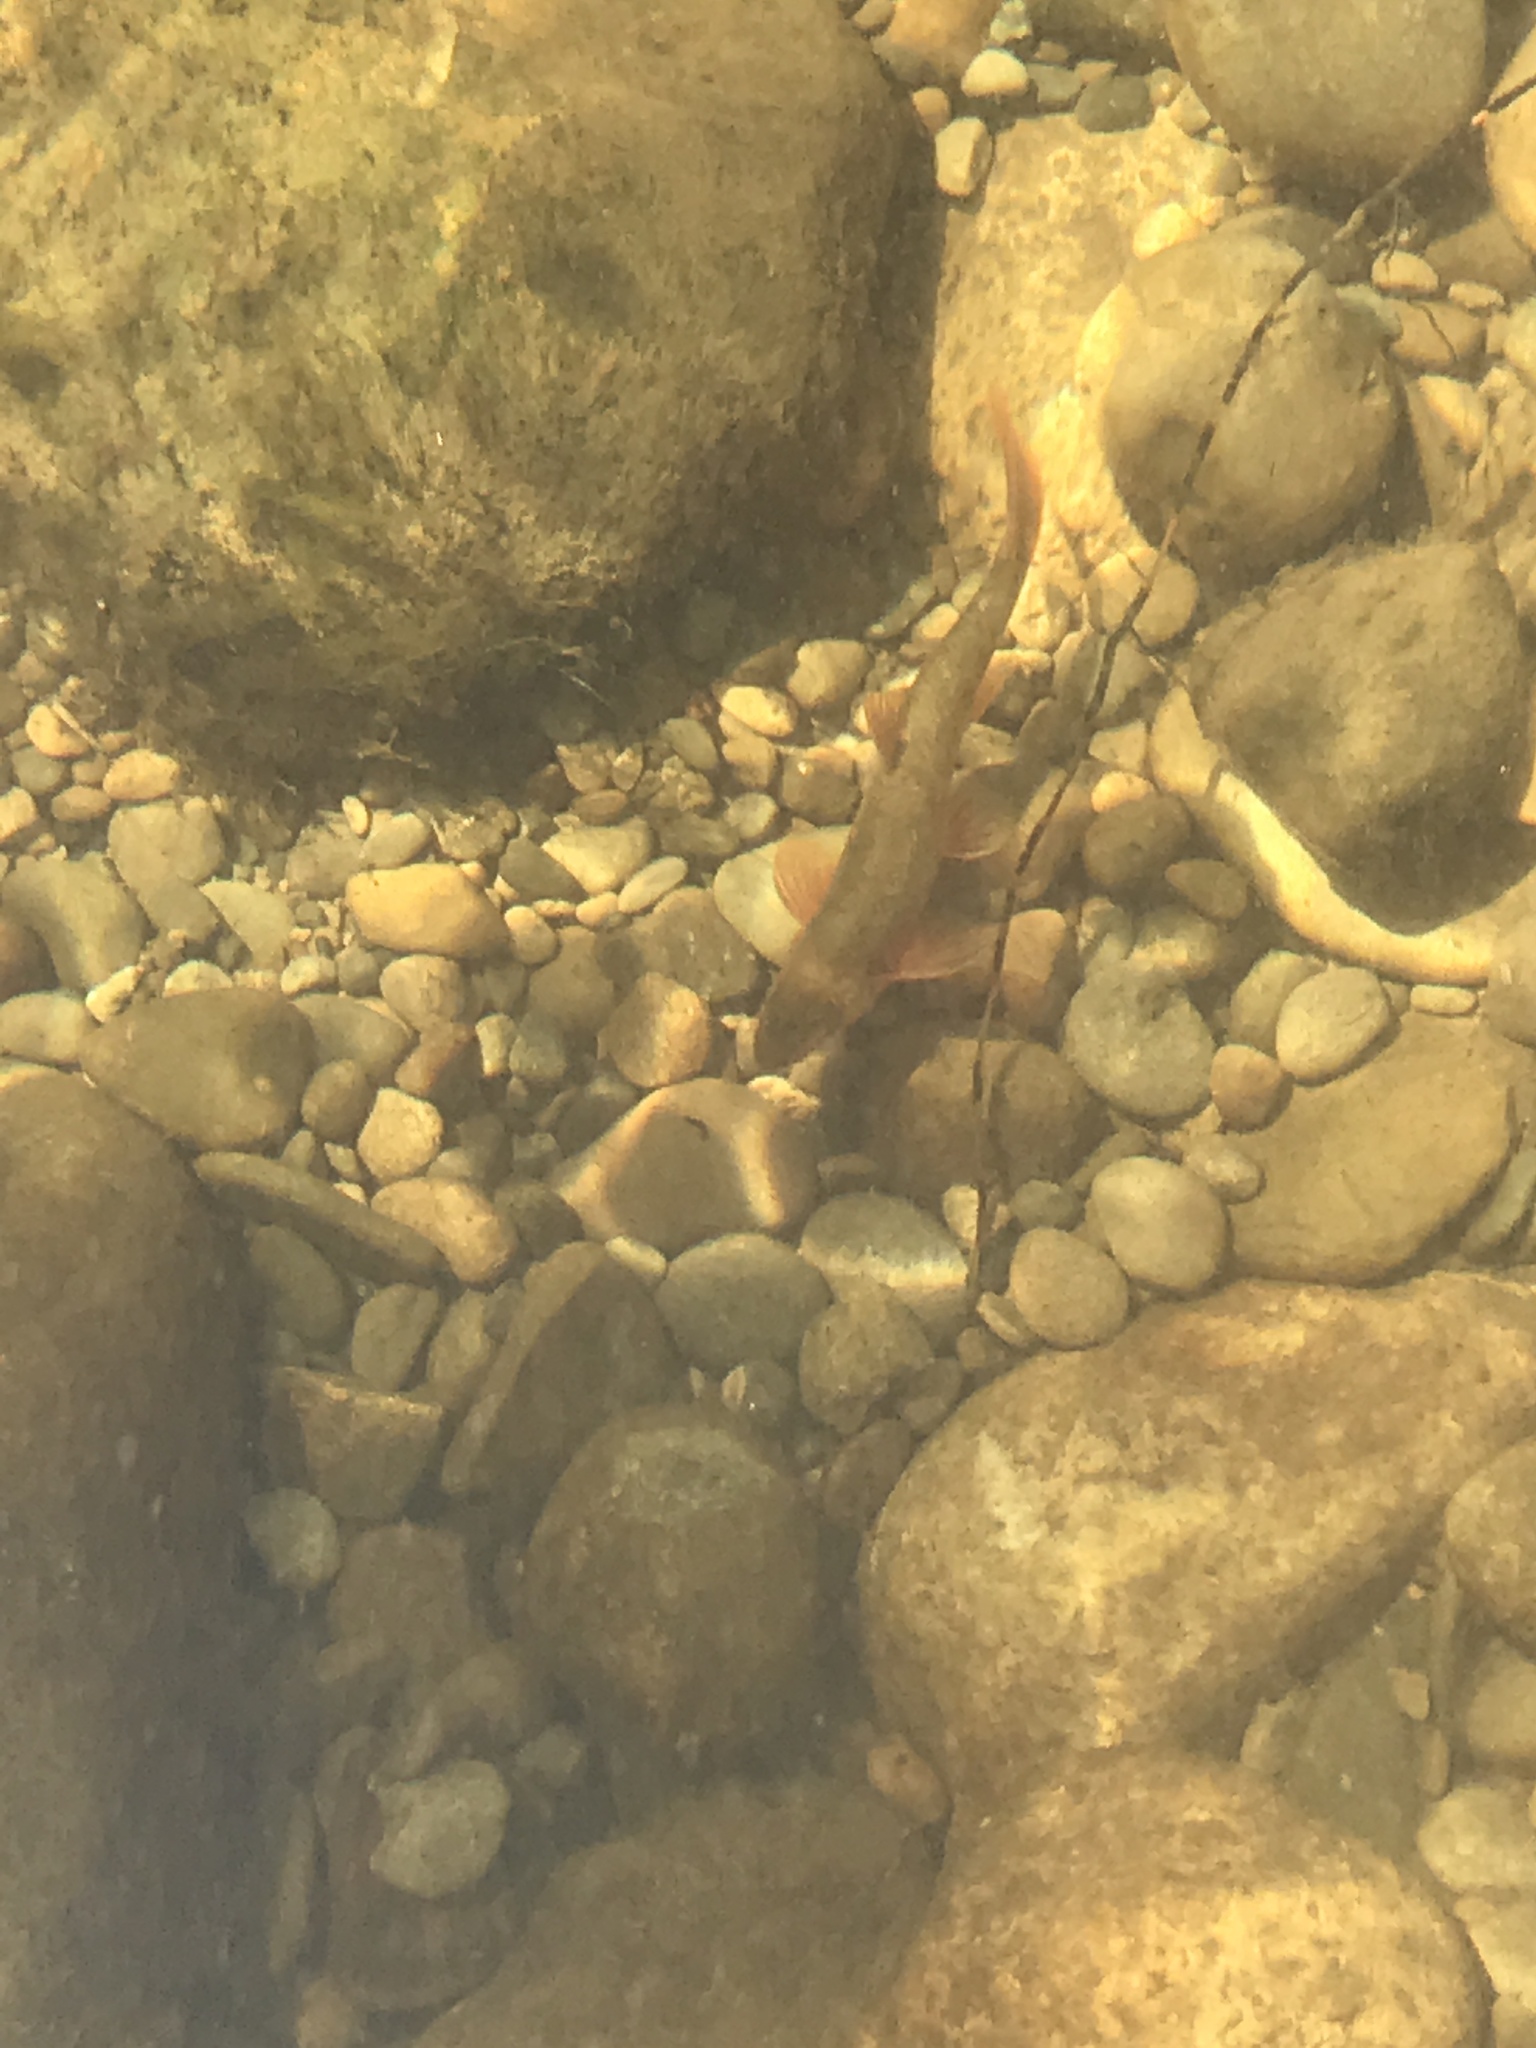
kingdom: Animalia
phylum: Chordata
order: Cypriniformes
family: Cyprinidae
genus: Rhinichthys
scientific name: Rhinichthys cataractae
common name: Longnose dace
